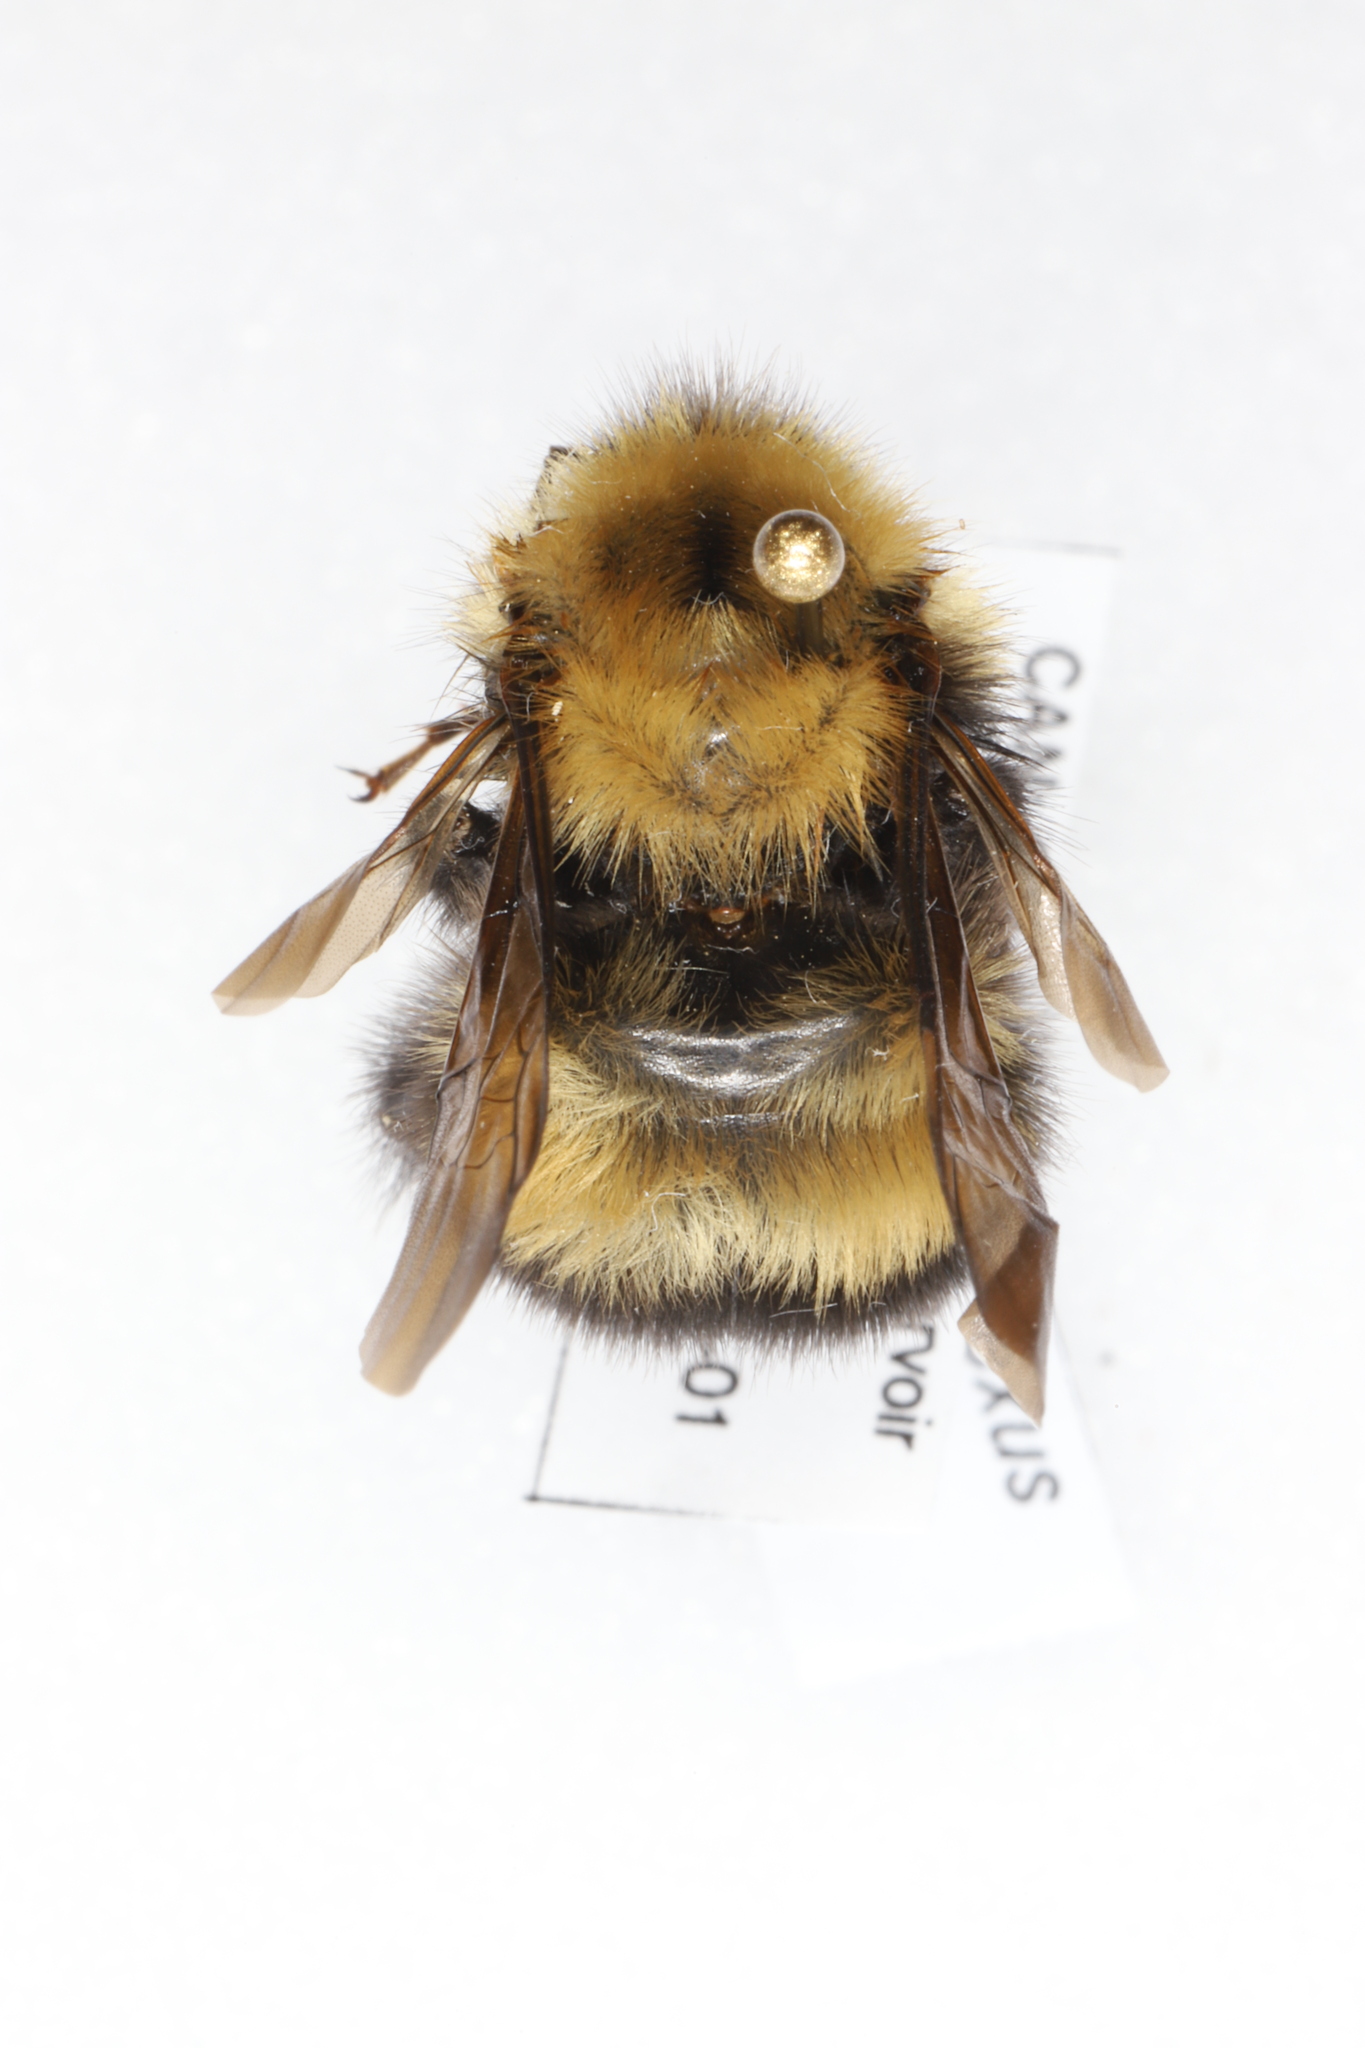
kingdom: Animalia
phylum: Arthropoda
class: Insecta
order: Hymenoptera
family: Apidae
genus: Bombus
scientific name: Bombus perplexus
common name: Confusing bumble bee
